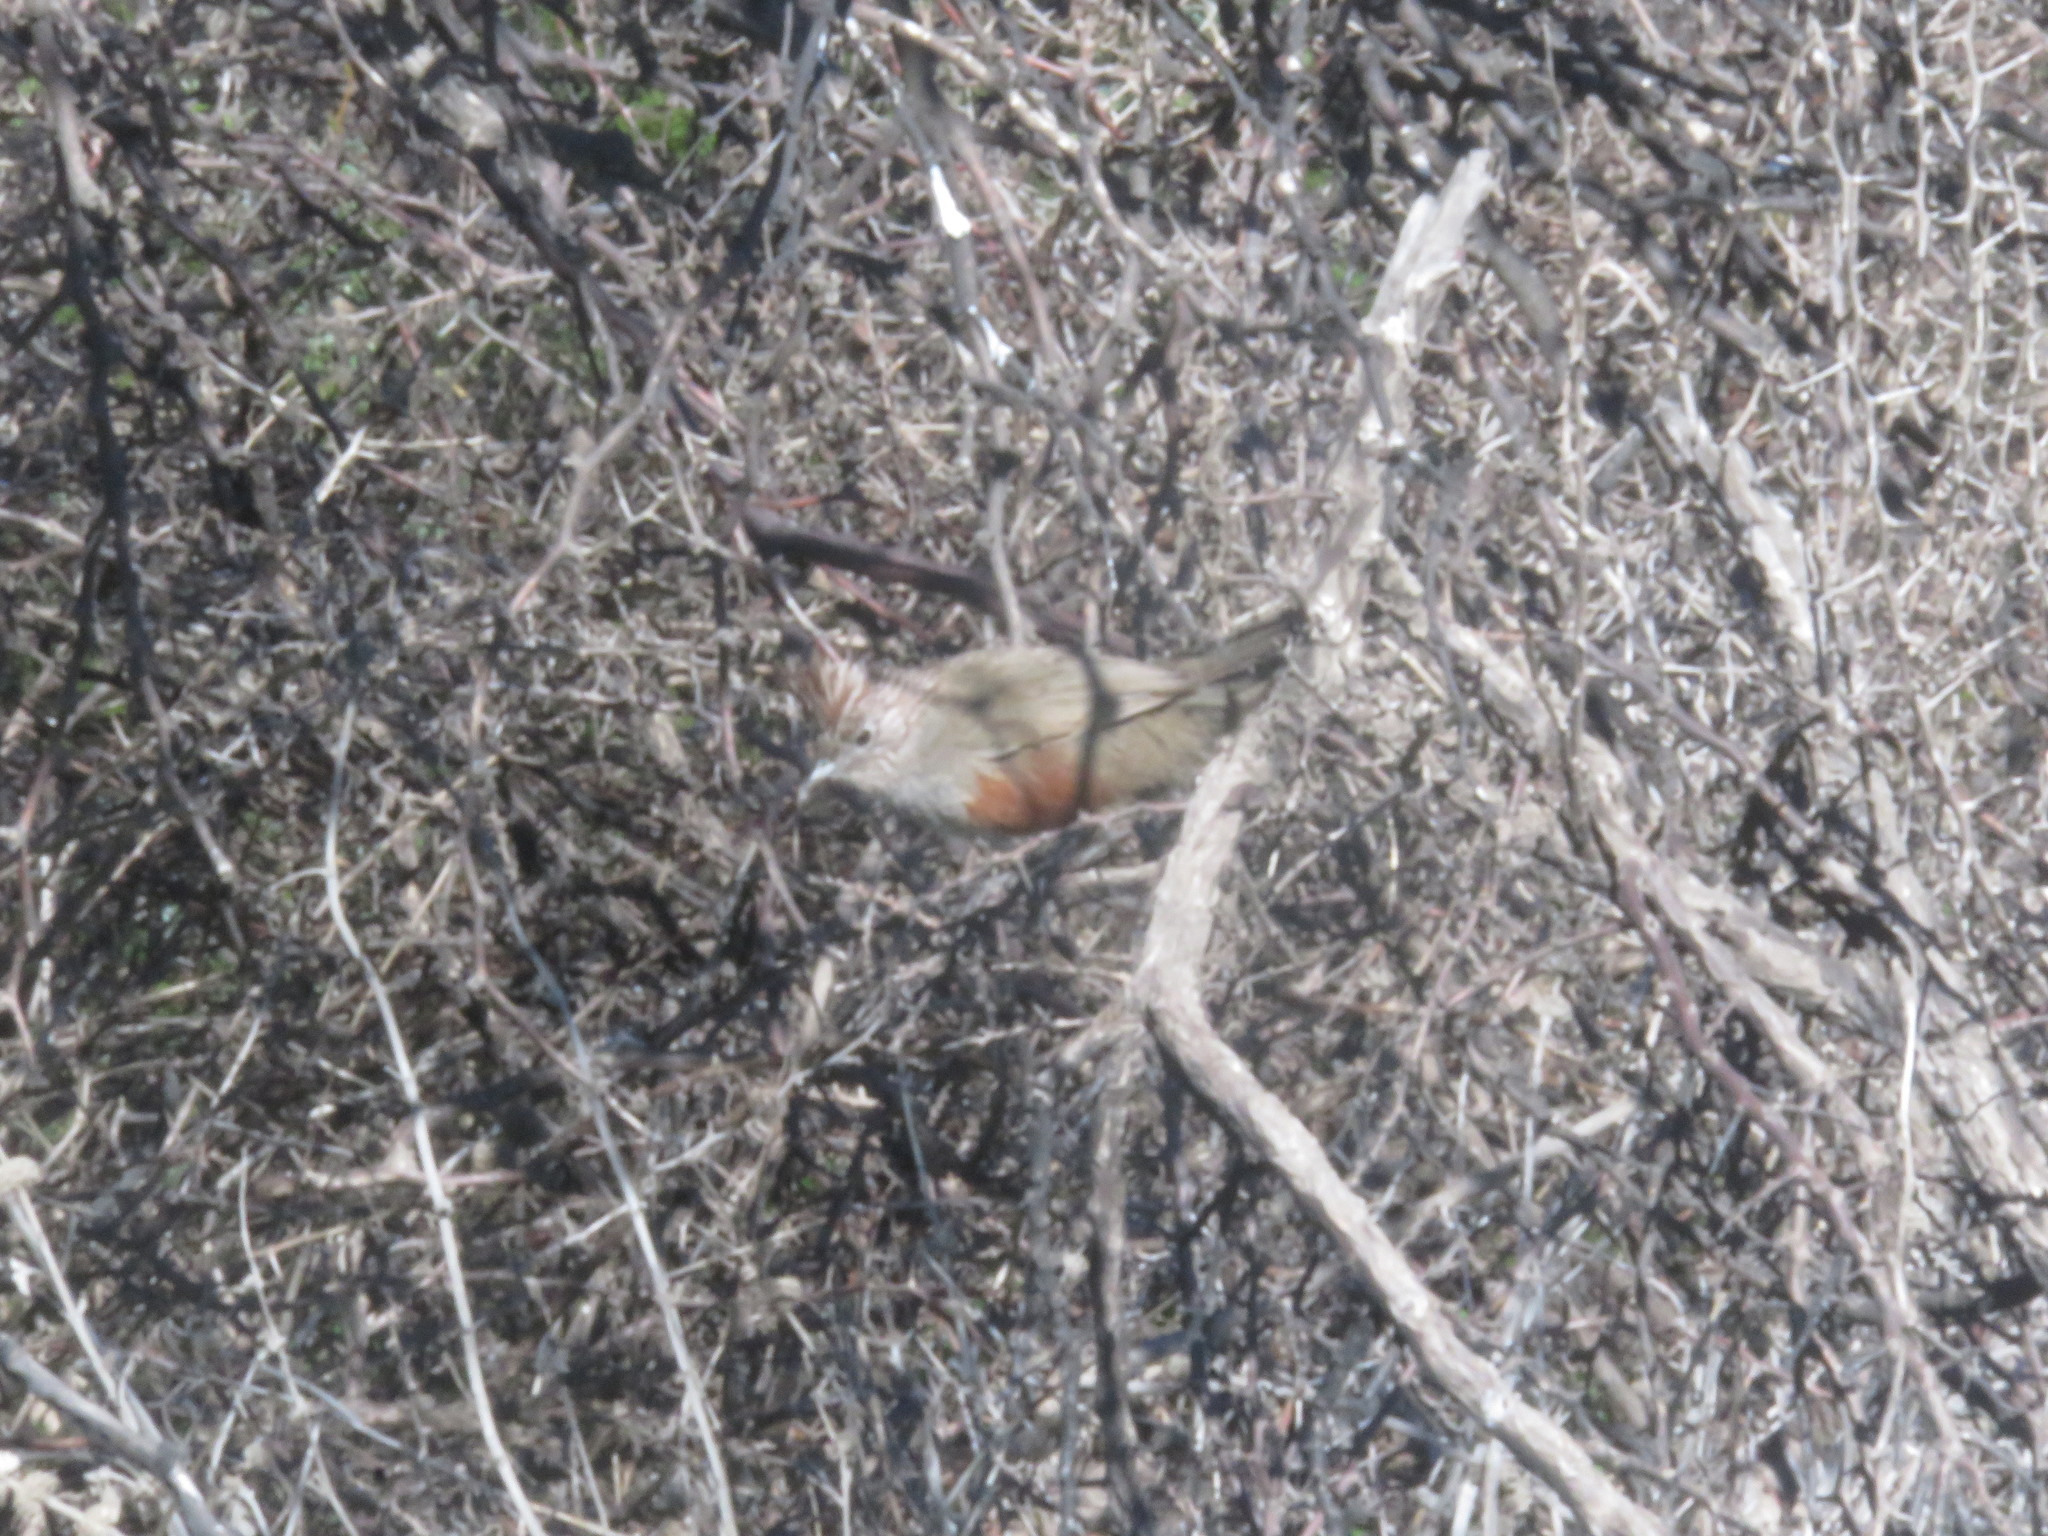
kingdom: Animalia
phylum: Chordata
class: Aves
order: Passeriformes
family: Rhinocryptidae
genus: Rhinocrypta
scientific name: Rhinocrypta lanceolata
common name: Crested gallito
